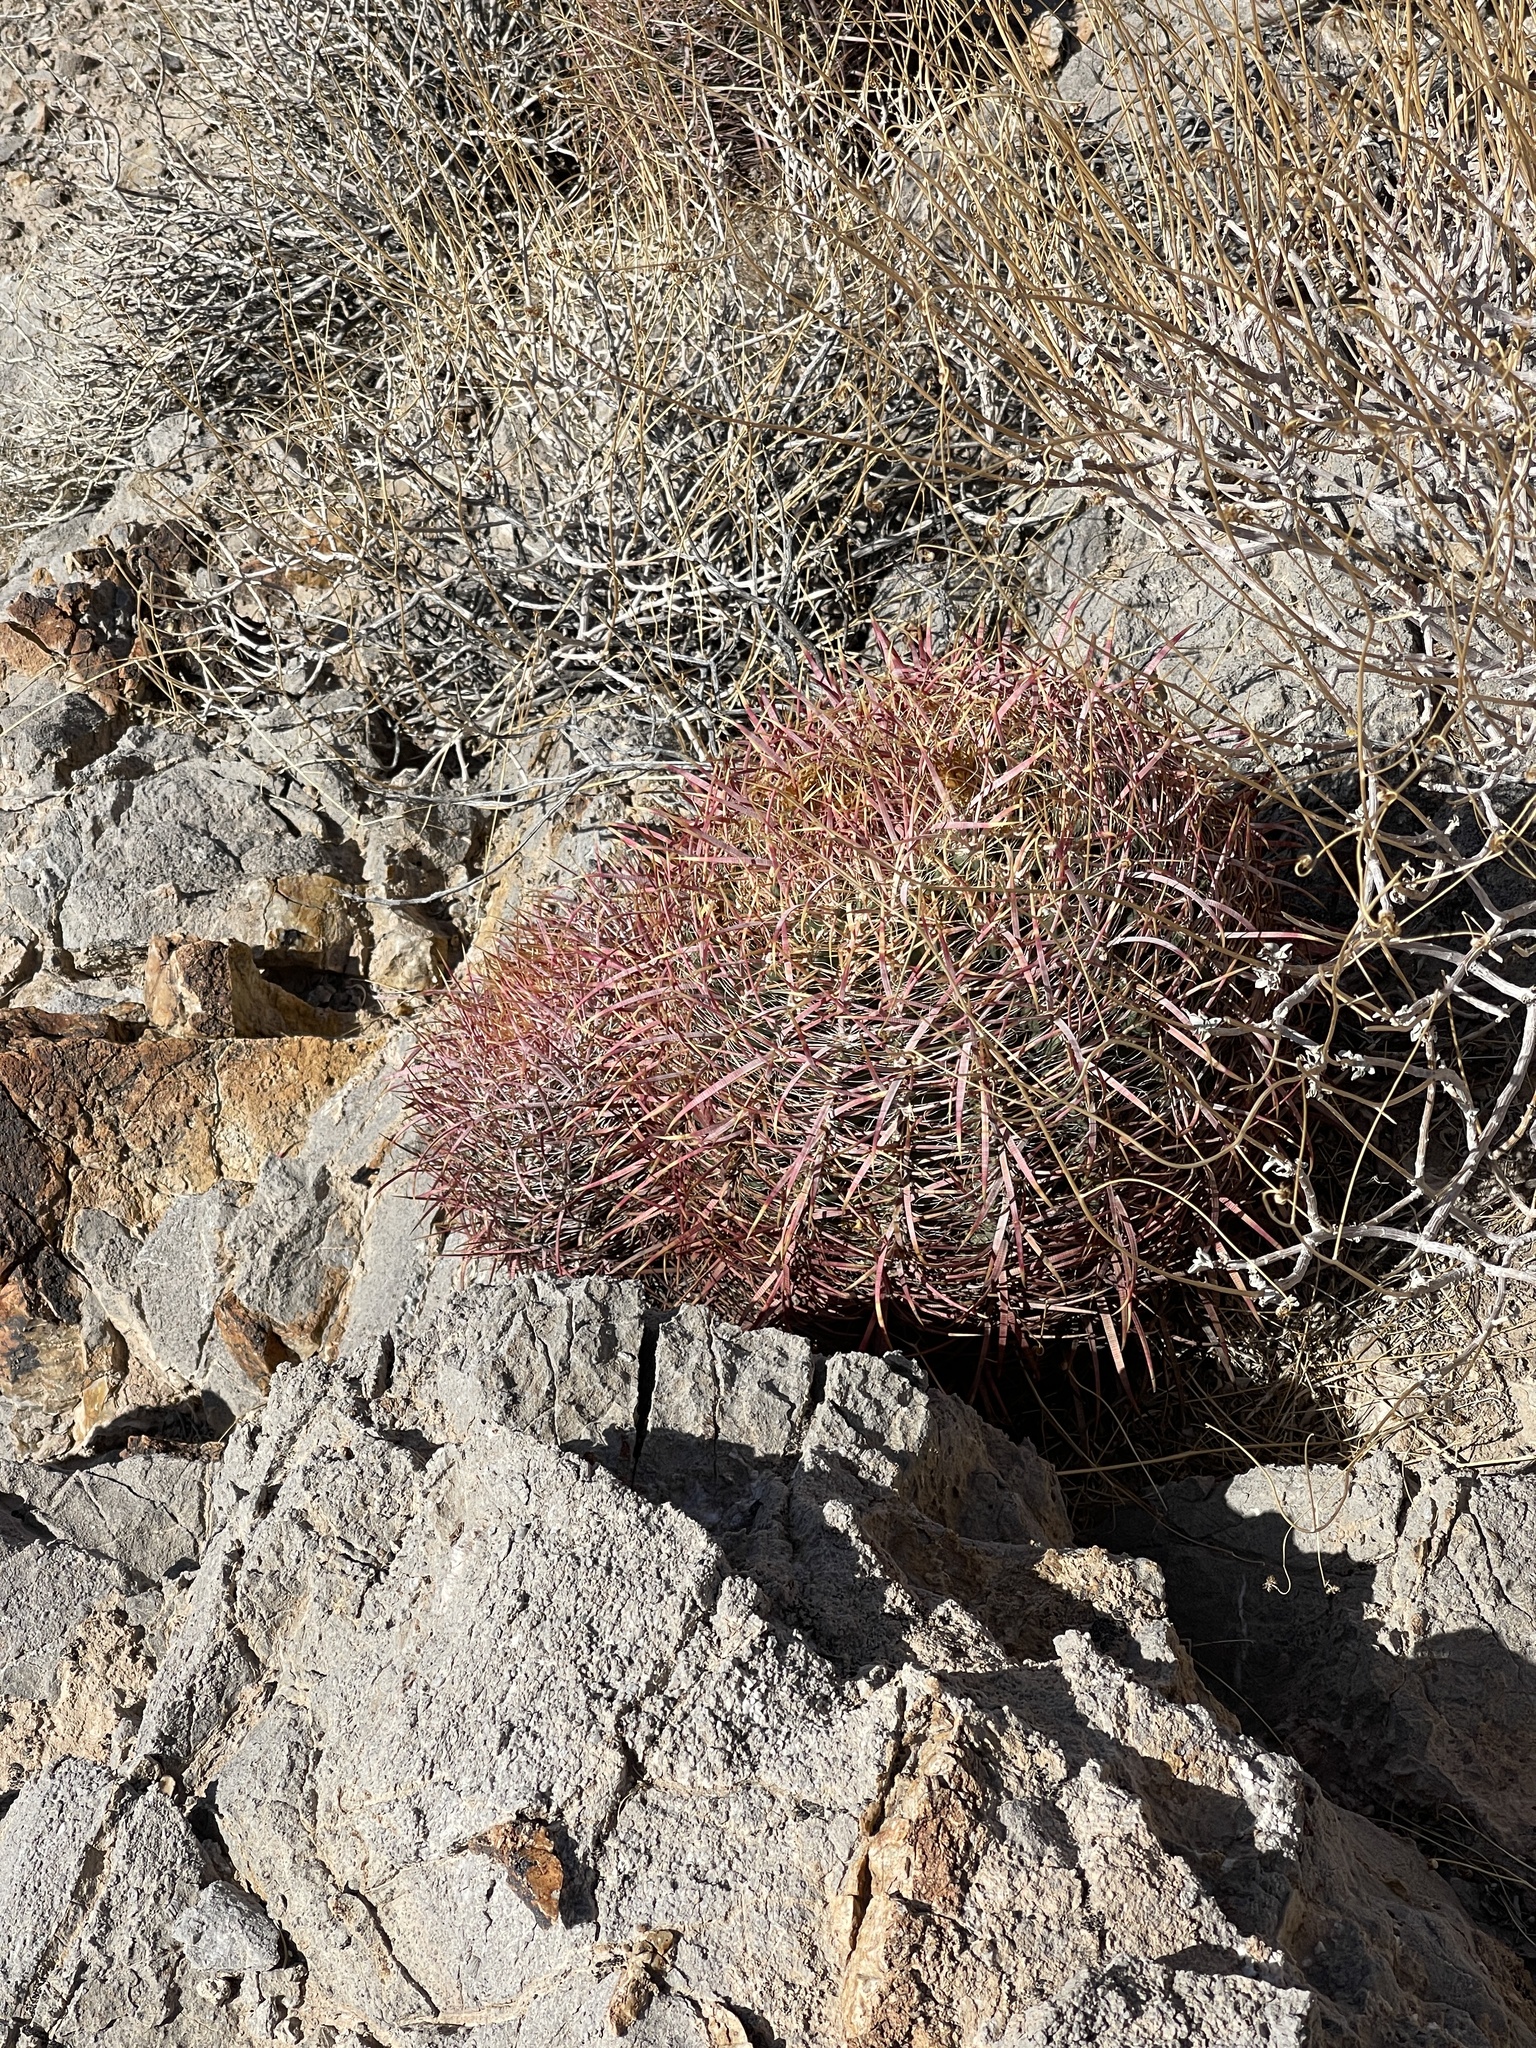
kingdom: Plantae
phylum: Tracheophyta
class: Magnoliopsida
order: Caryophyllales
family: Cactaceae
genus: Ferocactus
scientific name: Ferocactus cylindraceus
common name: California barrel cactus
